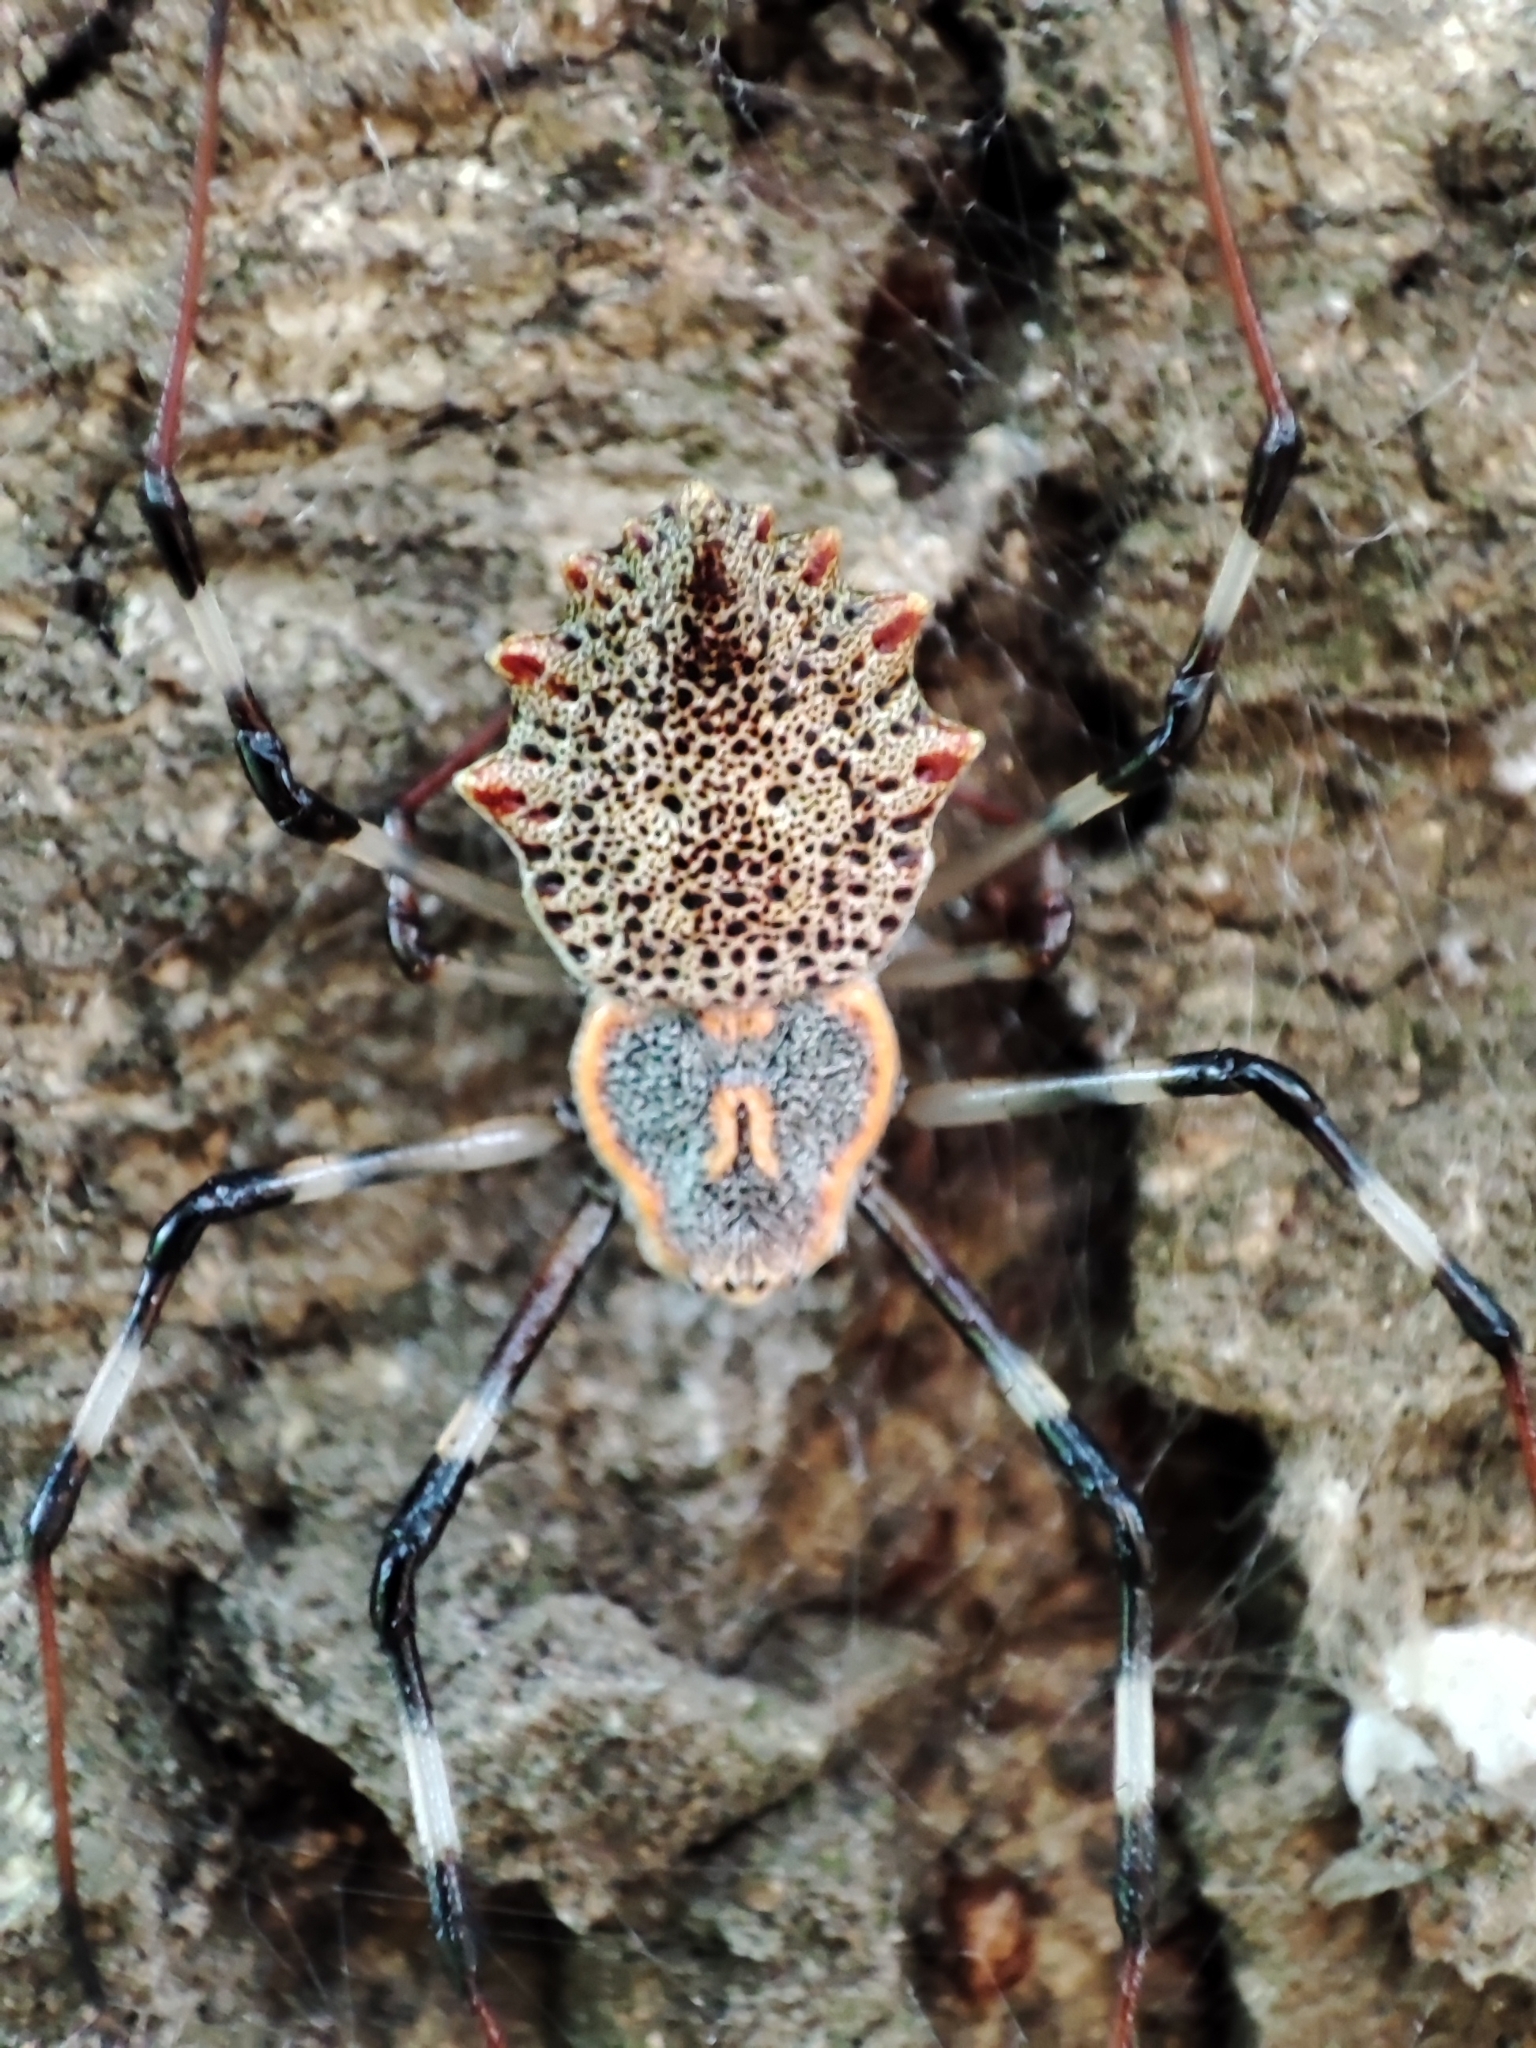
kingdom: Animalia
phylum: Arthropoda
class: Arachnida
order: Araneae
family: Araneidae
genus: Herennia
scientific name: Herennia multipuncta
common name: Spotted coin spider
